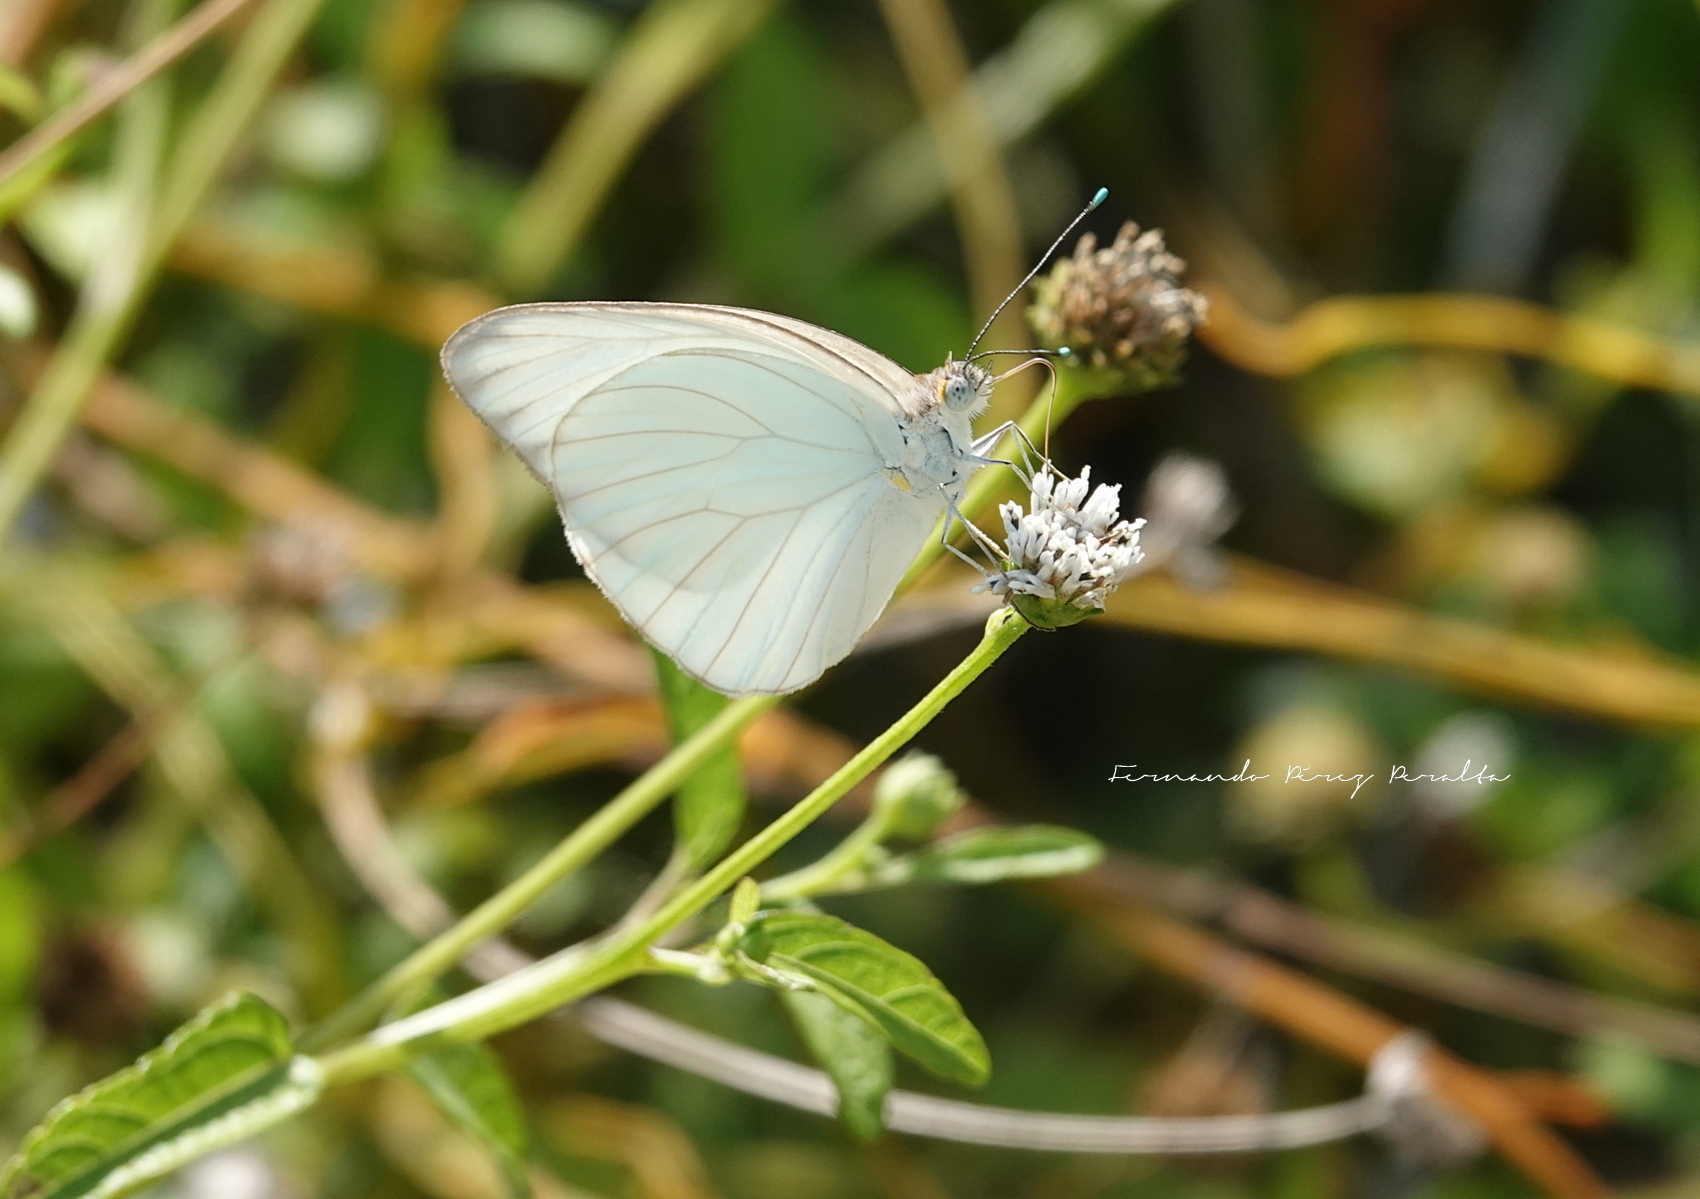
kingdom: Animalia
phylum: Arthropoda
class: Insecta
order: Lepidoptera
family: Pieridae
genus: Ascia
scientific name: Ascia monuste
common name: Great southern white
